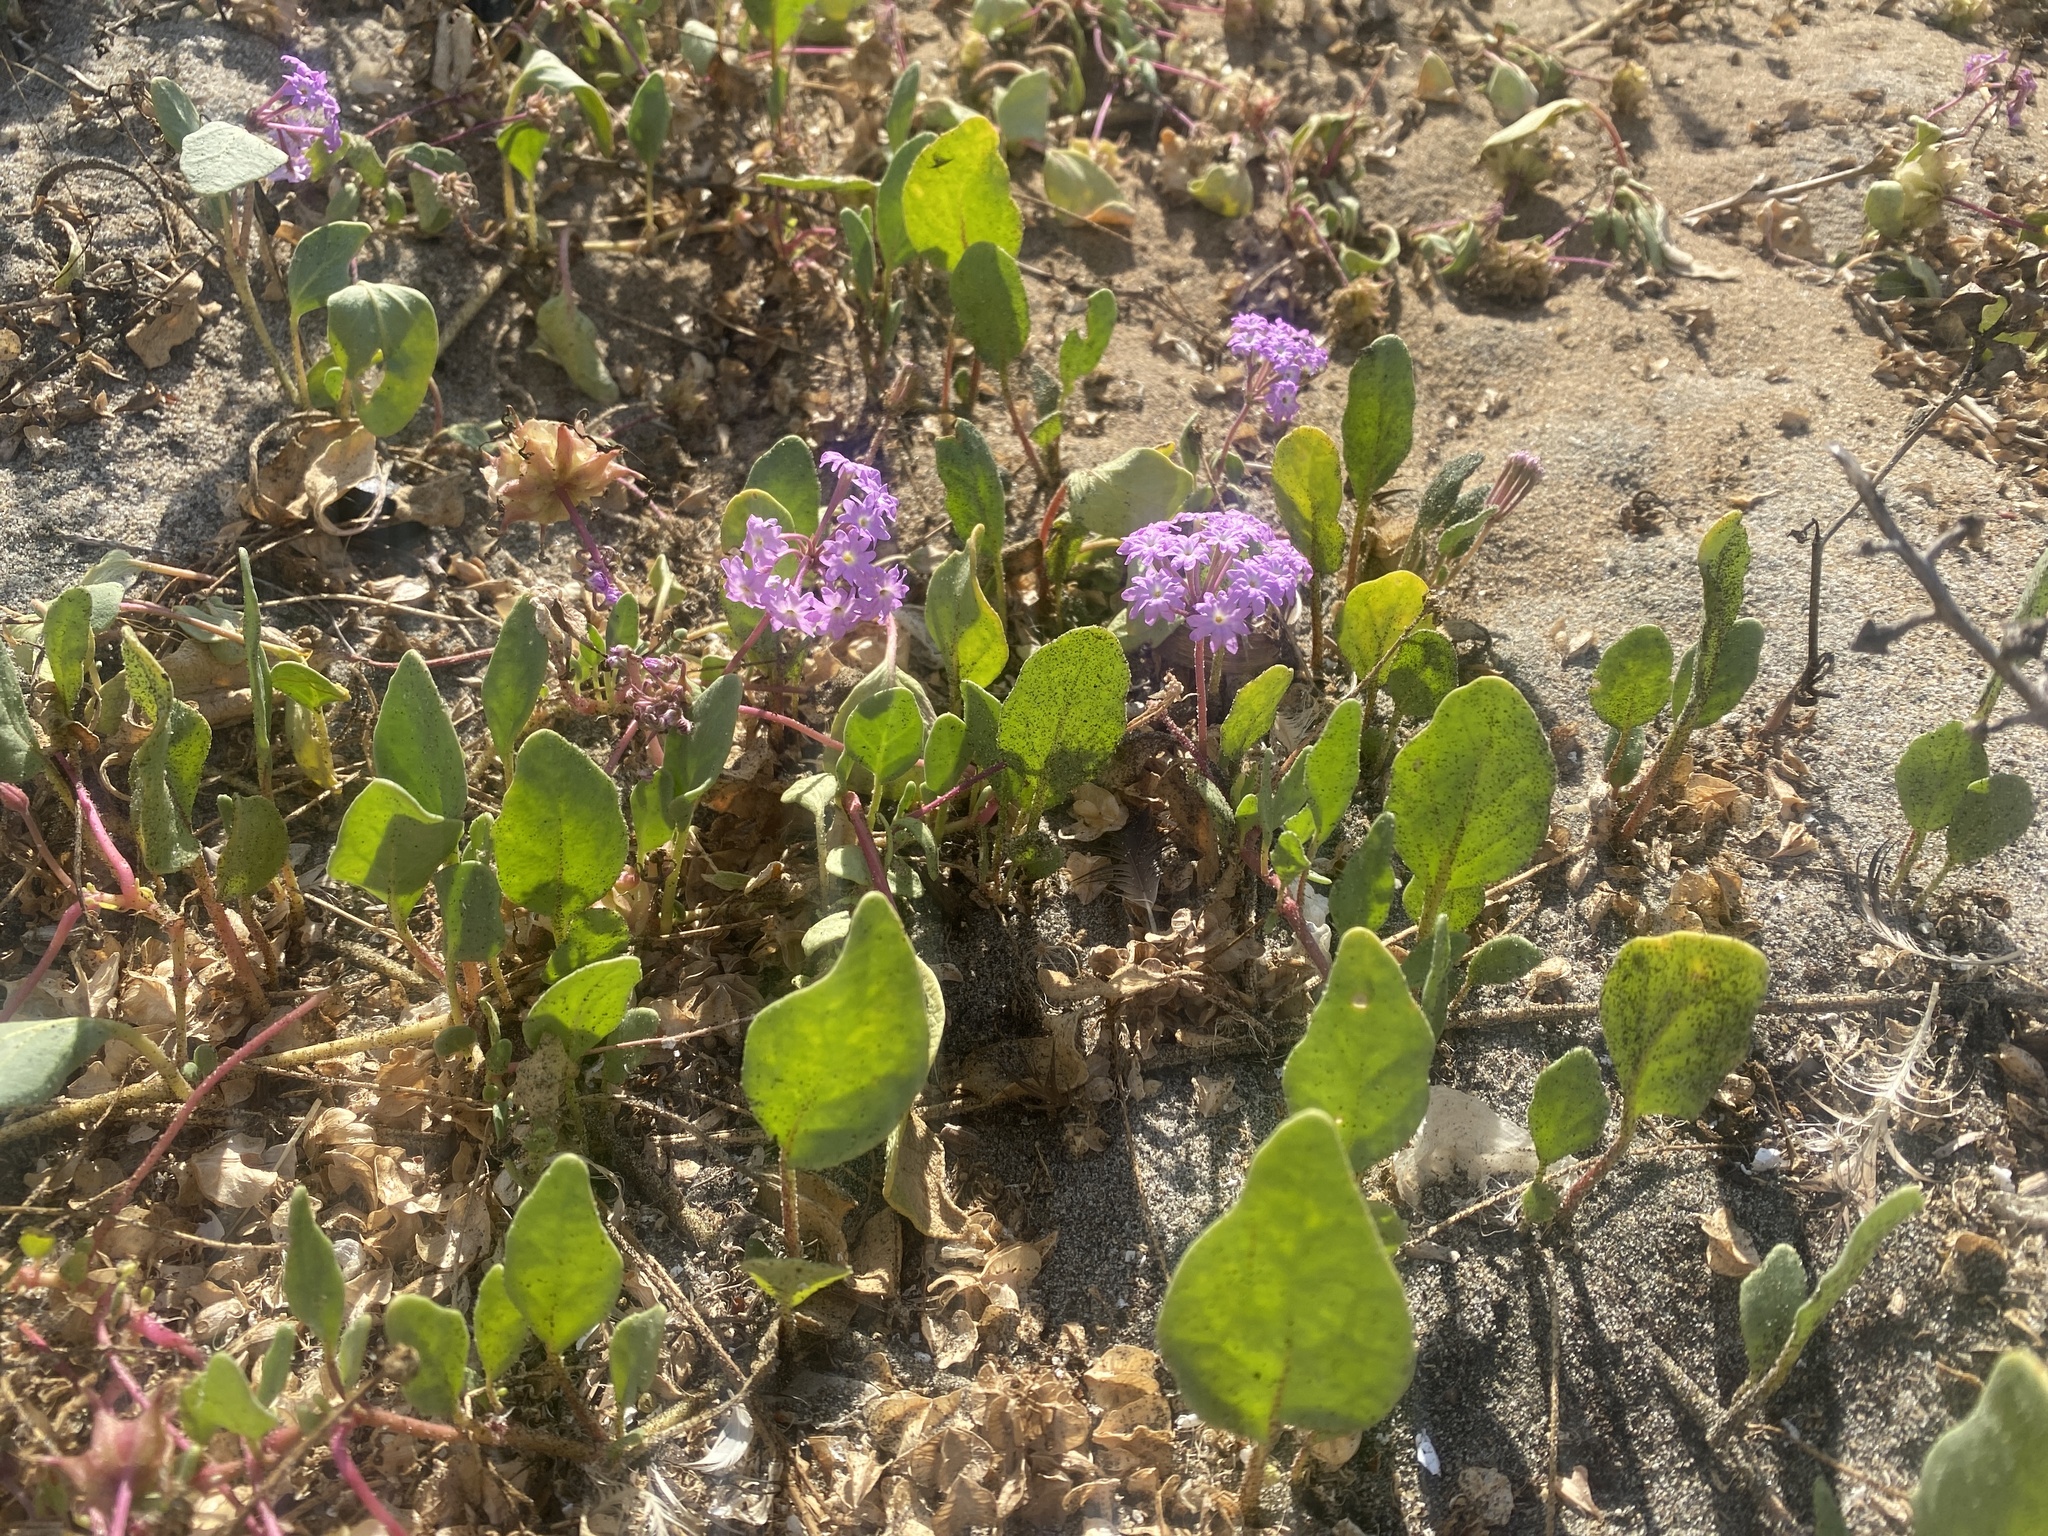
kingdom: Plantae
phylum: Tracheophyta
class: Magnoliopsida
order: Caryophyllales
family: Nyctaginaceae
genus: Abronia
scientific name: Abronia umbellata
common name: Sand-verbena
